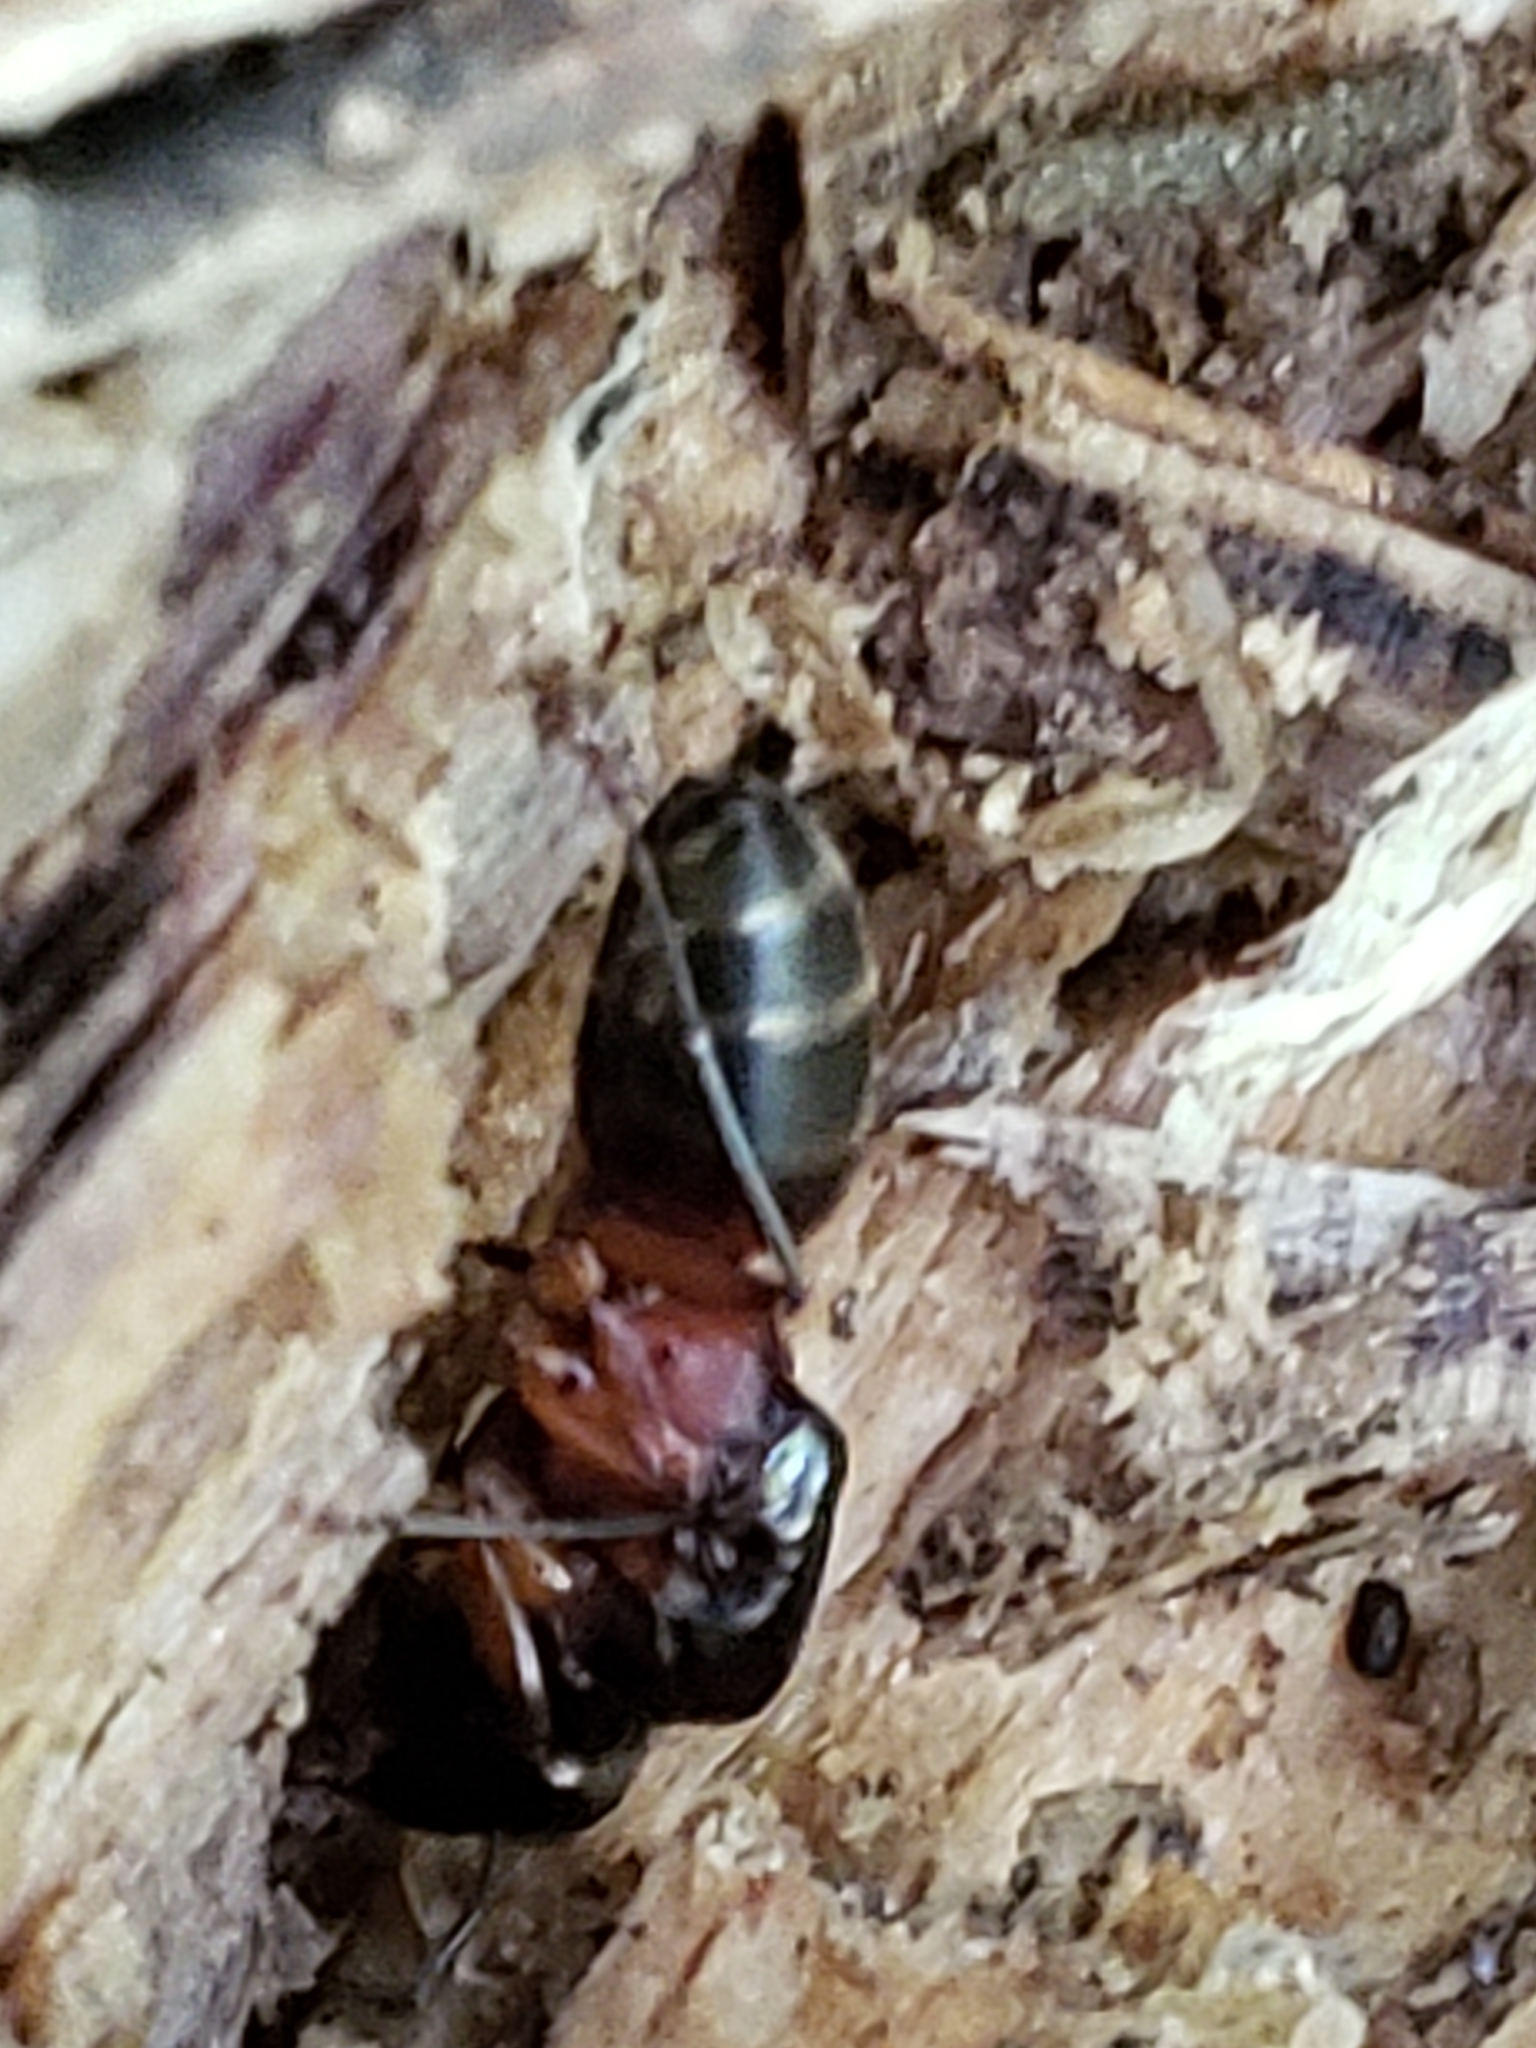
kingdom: Animalia
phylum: Arthropoda
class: Insecta
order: Hymenoptera
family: Formicidae
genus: Camponotus
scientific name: Camponotus chromaiodes
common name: Red carpenter ant
